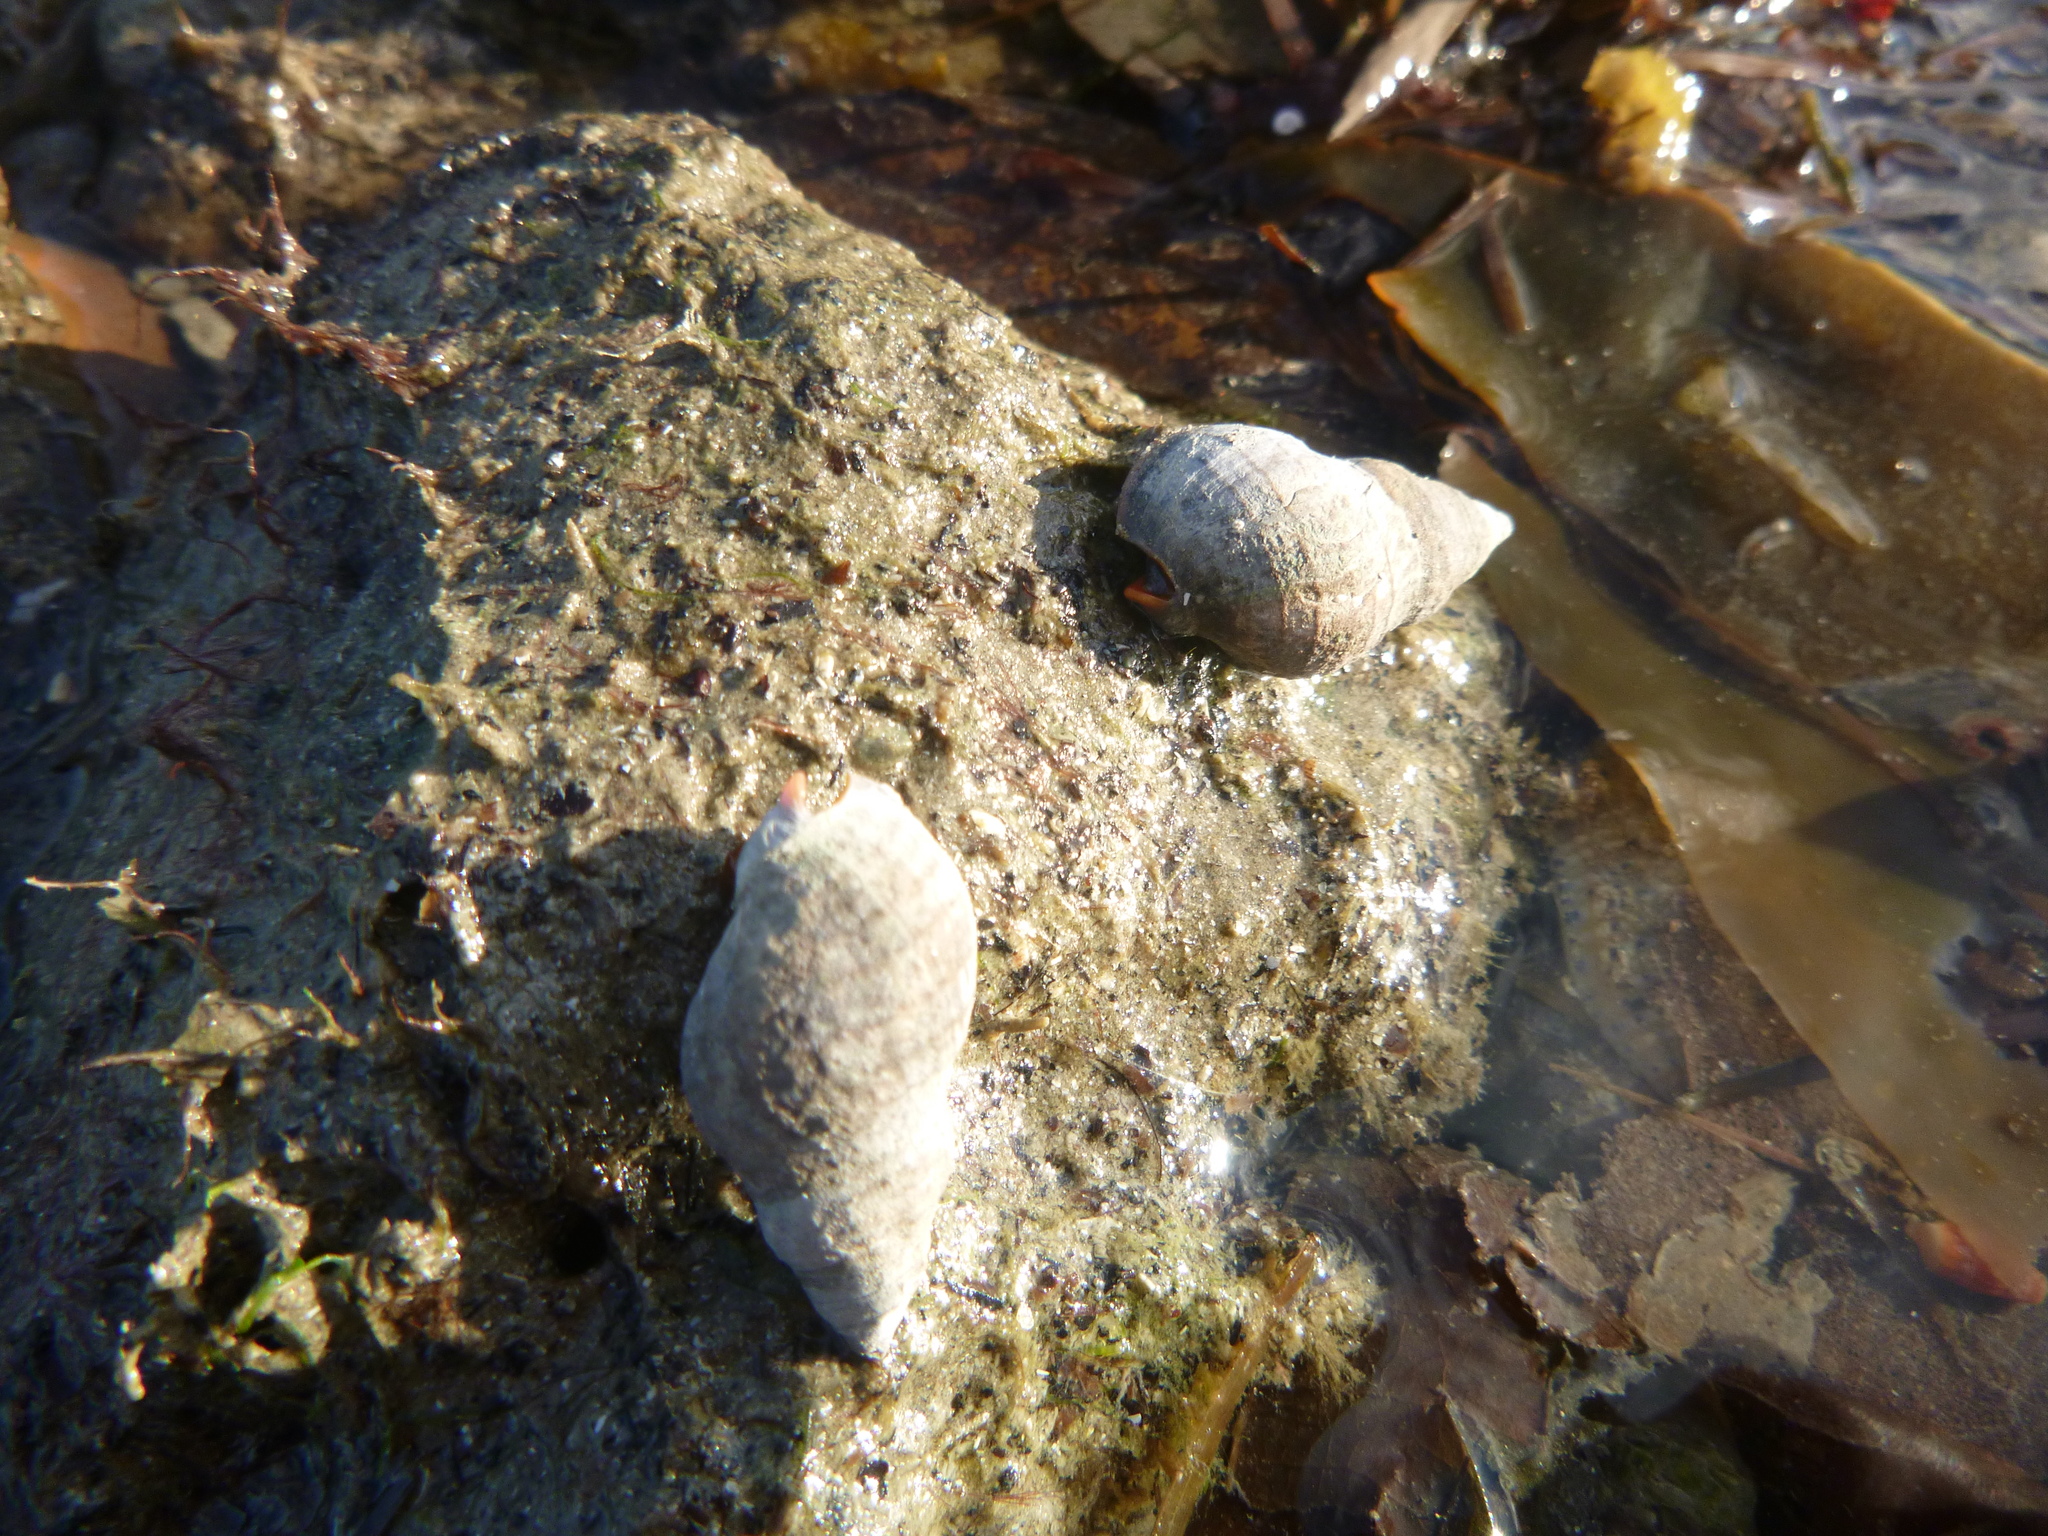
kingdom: Animalia
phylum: Mollusca
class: Gastropoda
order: Neogastropoda
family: Cominellidae
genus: Cominella
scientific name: Cominella virgata
